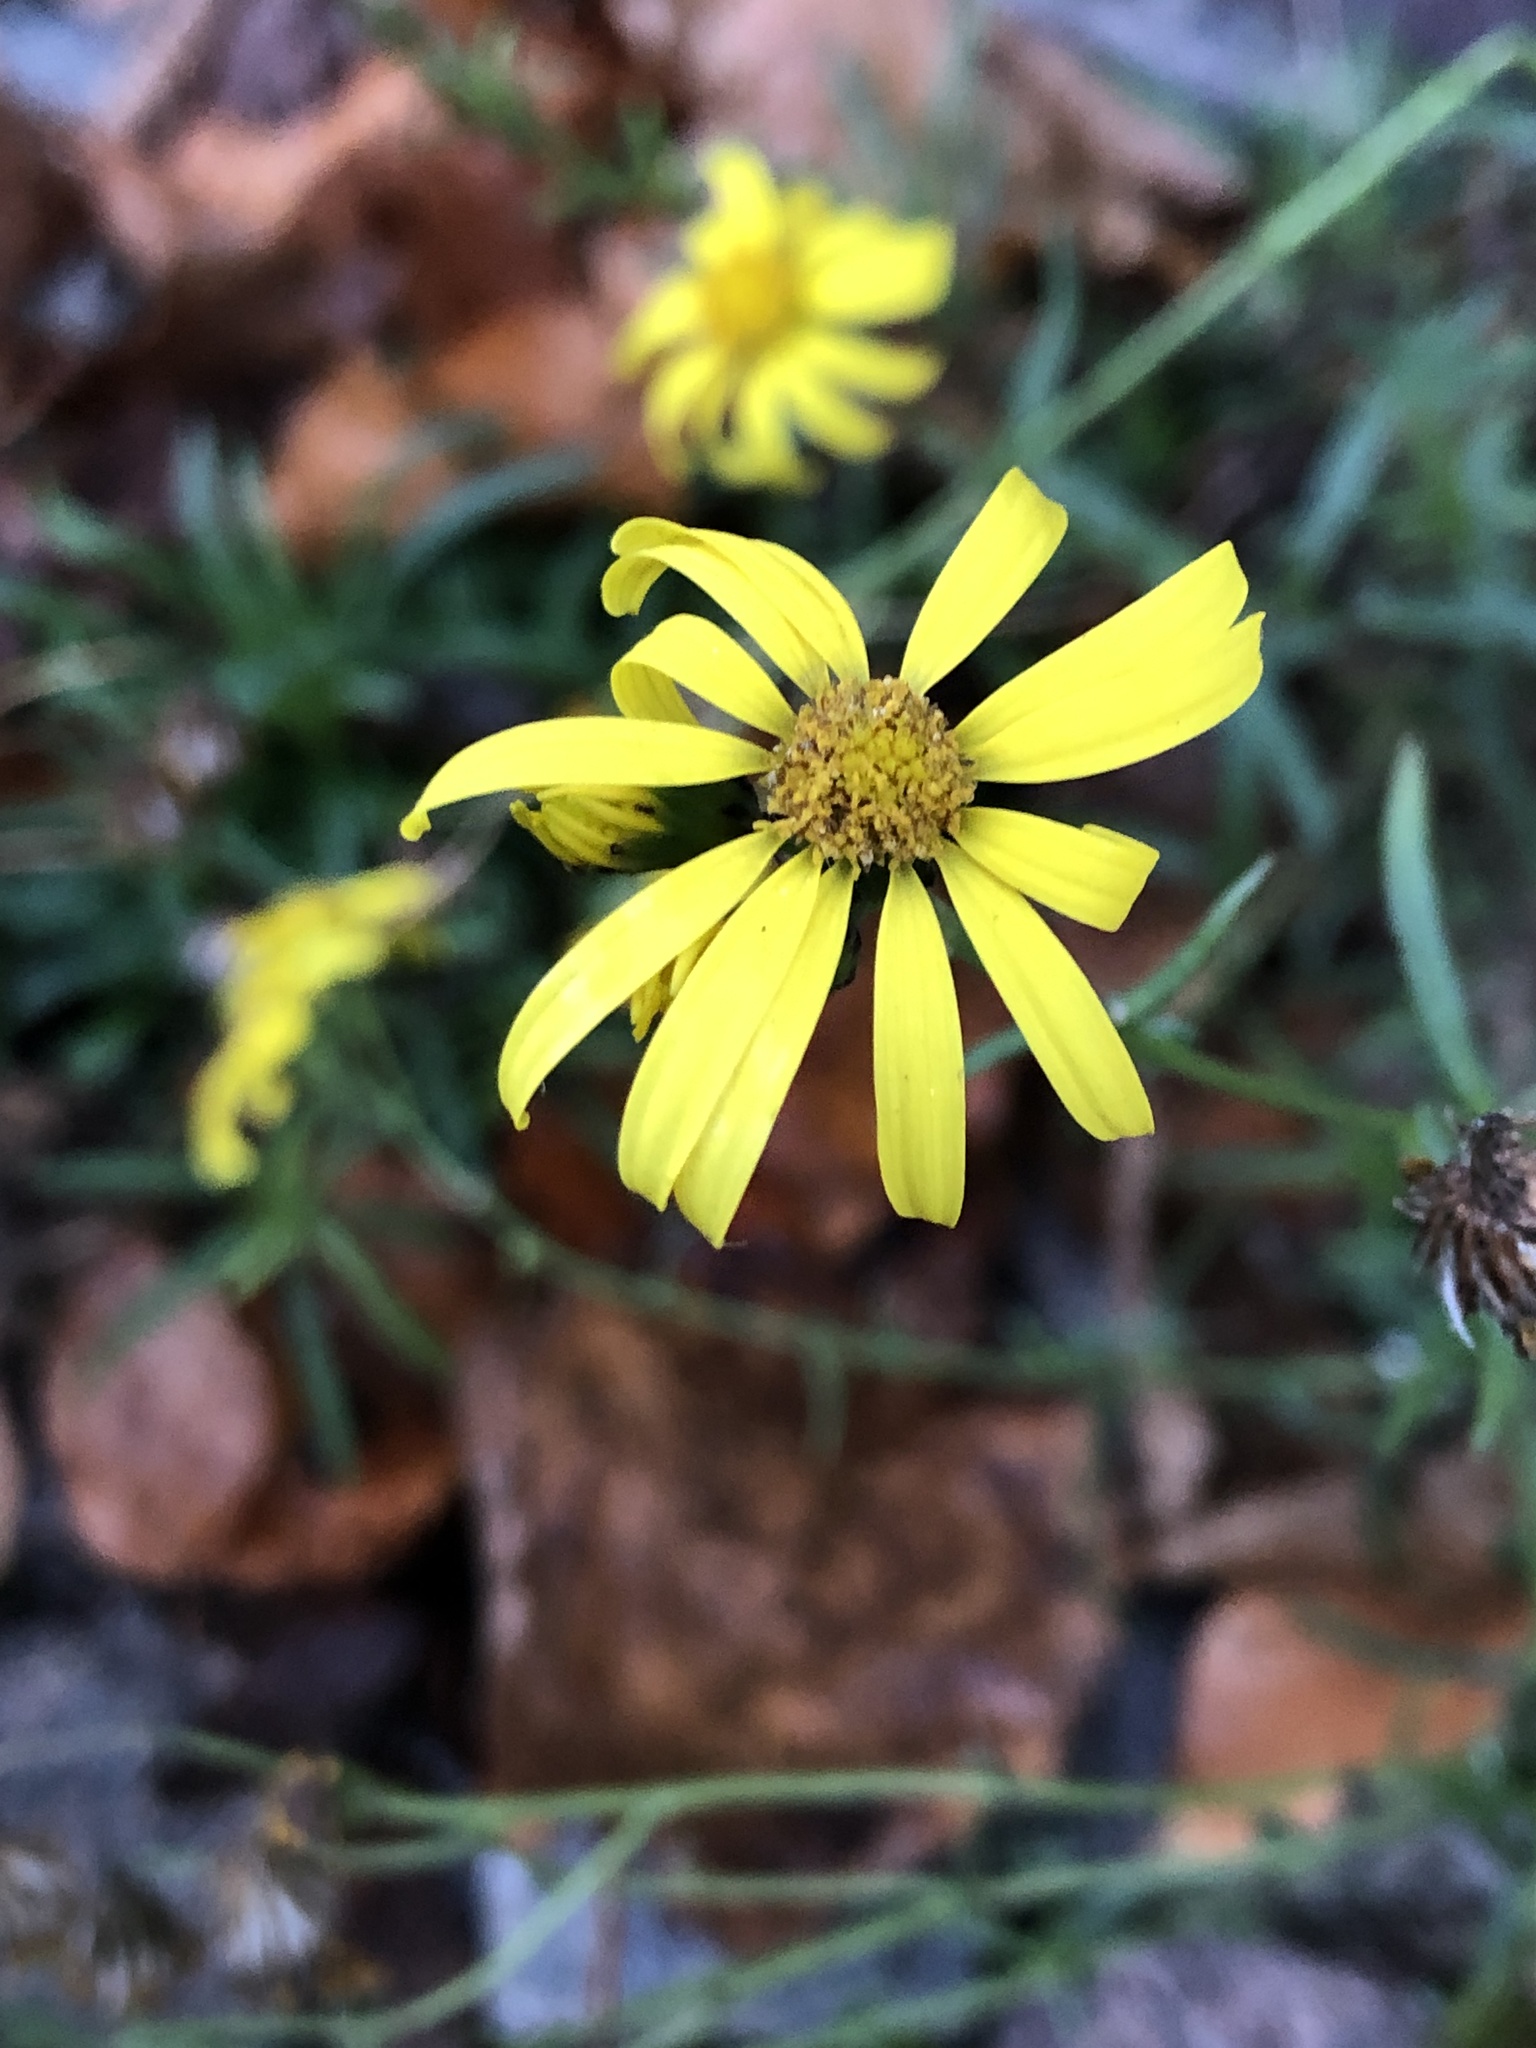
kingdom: Plantae
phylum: Tracheophyta
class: Magnoliopsida
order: Asterales
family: Asteraceae
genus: Senecio
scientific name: Senecio inaequidens
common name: Narrow-leaved ragwort
